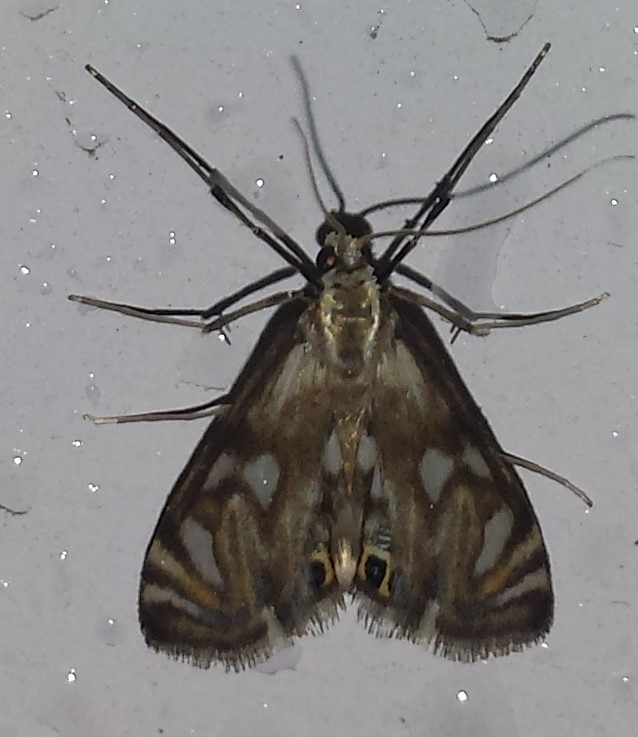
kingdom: Animalia
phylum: Arthropoda
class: Insecta
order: Lepidoptera
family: Crambidae
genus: Neocataclysta
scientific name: Neocataclysta magnificalis
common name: Scrollwork pyralid moth
